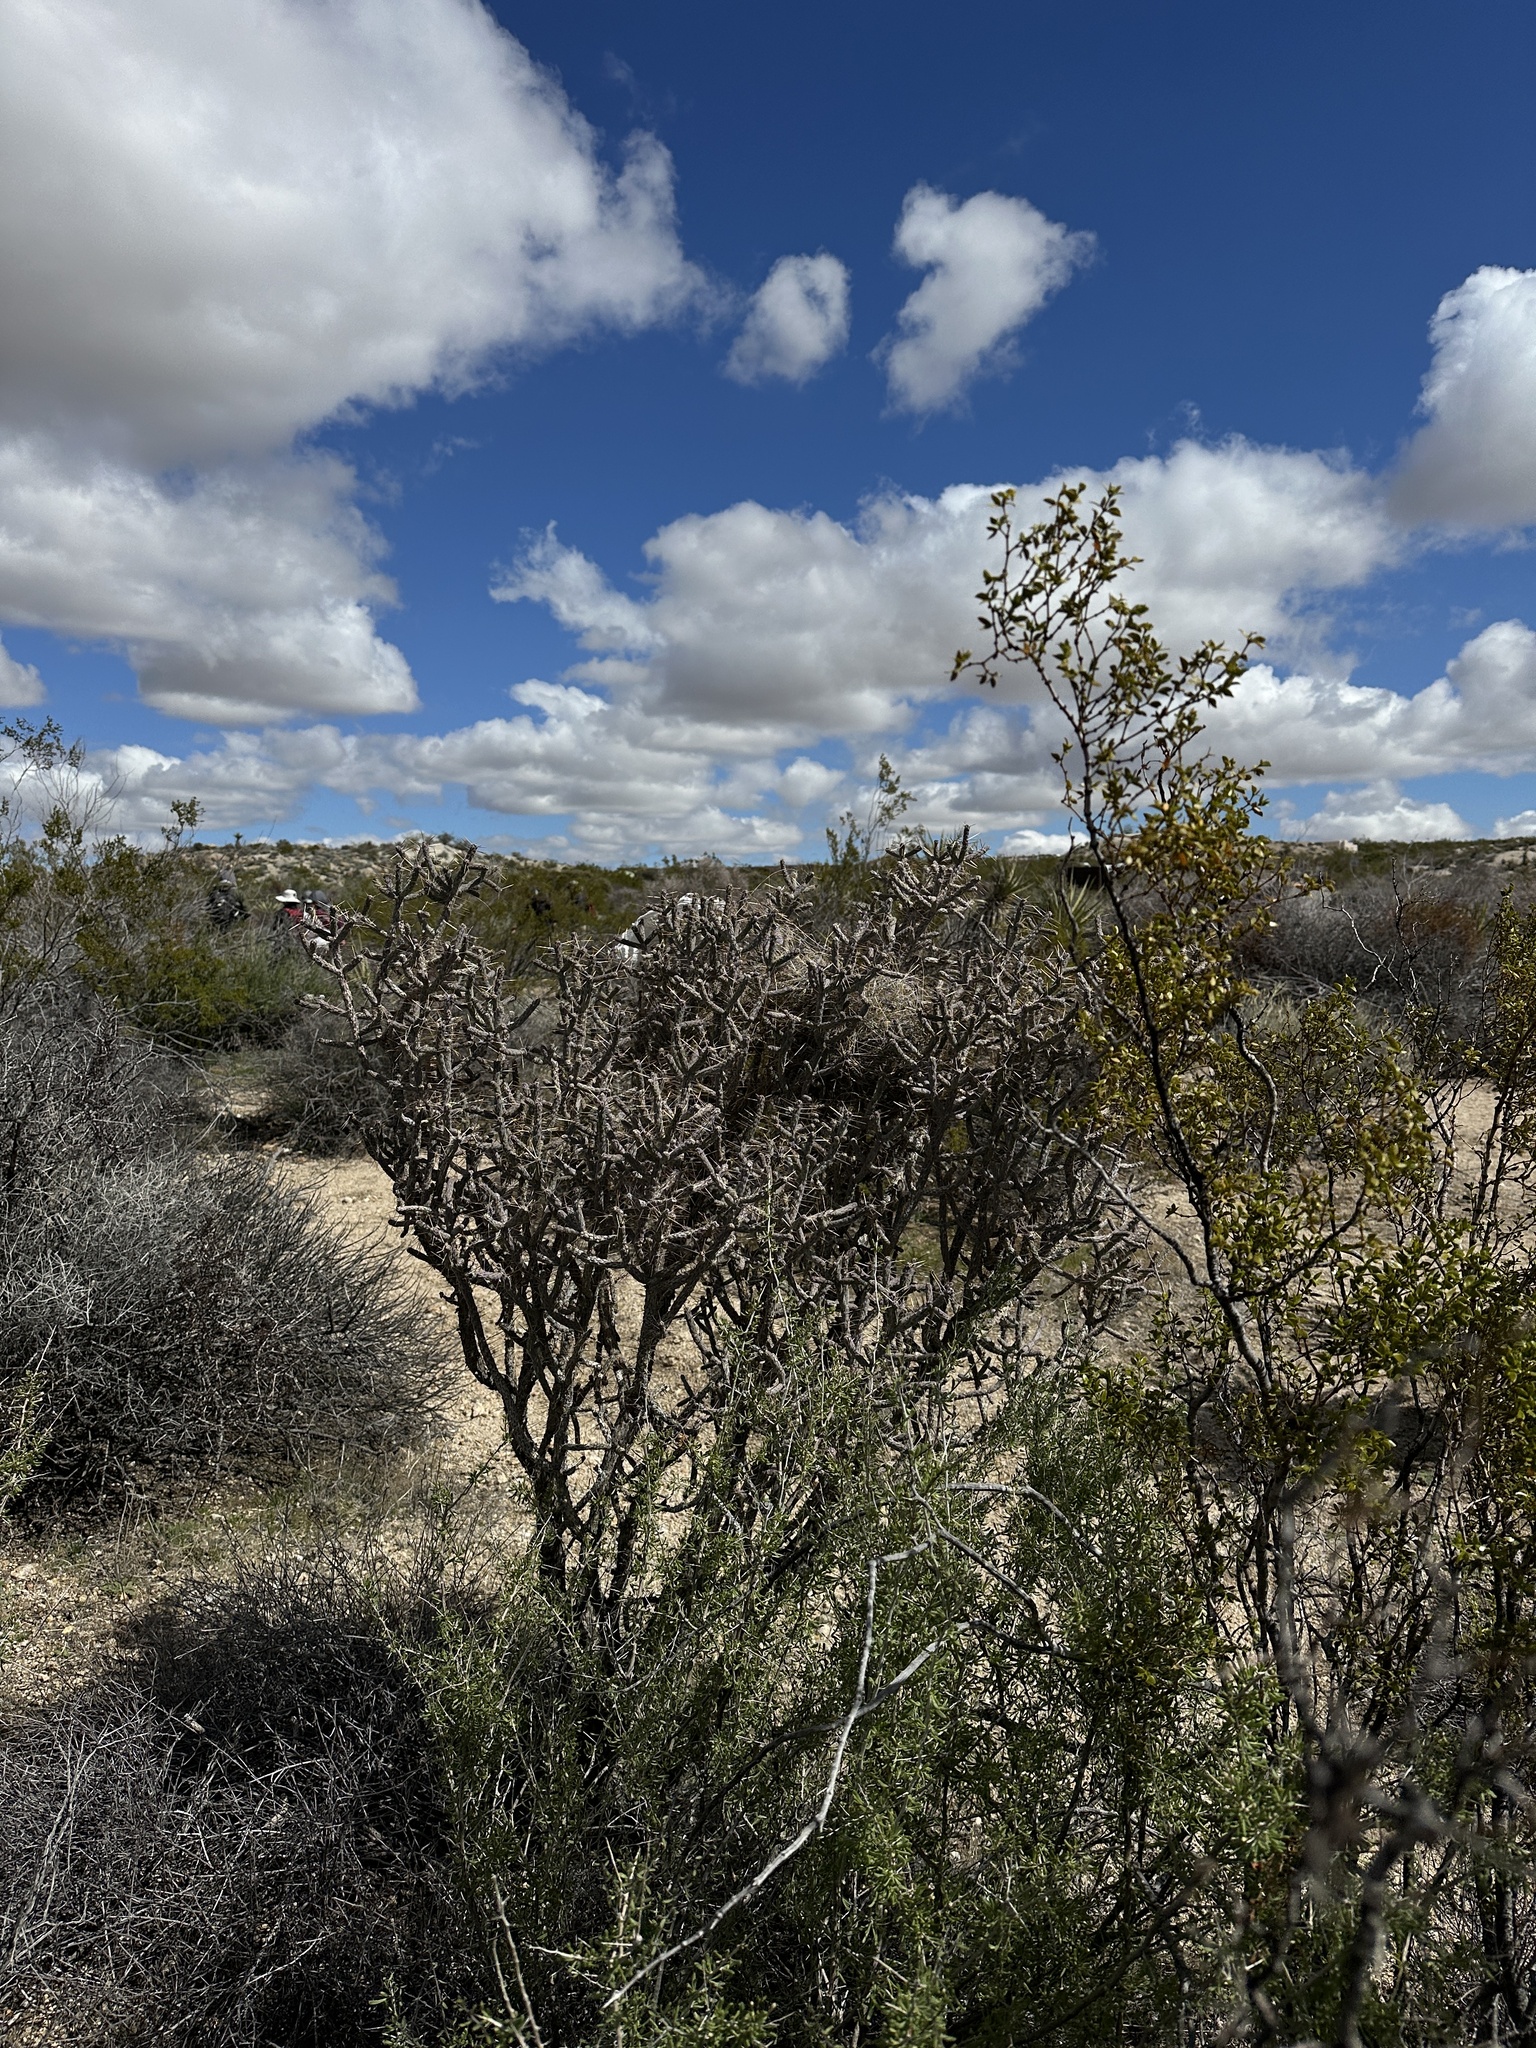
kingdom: Animalia
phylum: Chordata
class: Aves
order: Passeriformes
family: Troglodytidae
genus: Campylorhynchus
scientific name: Campylorhynchus brunneicapillus
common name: Cactus wren
